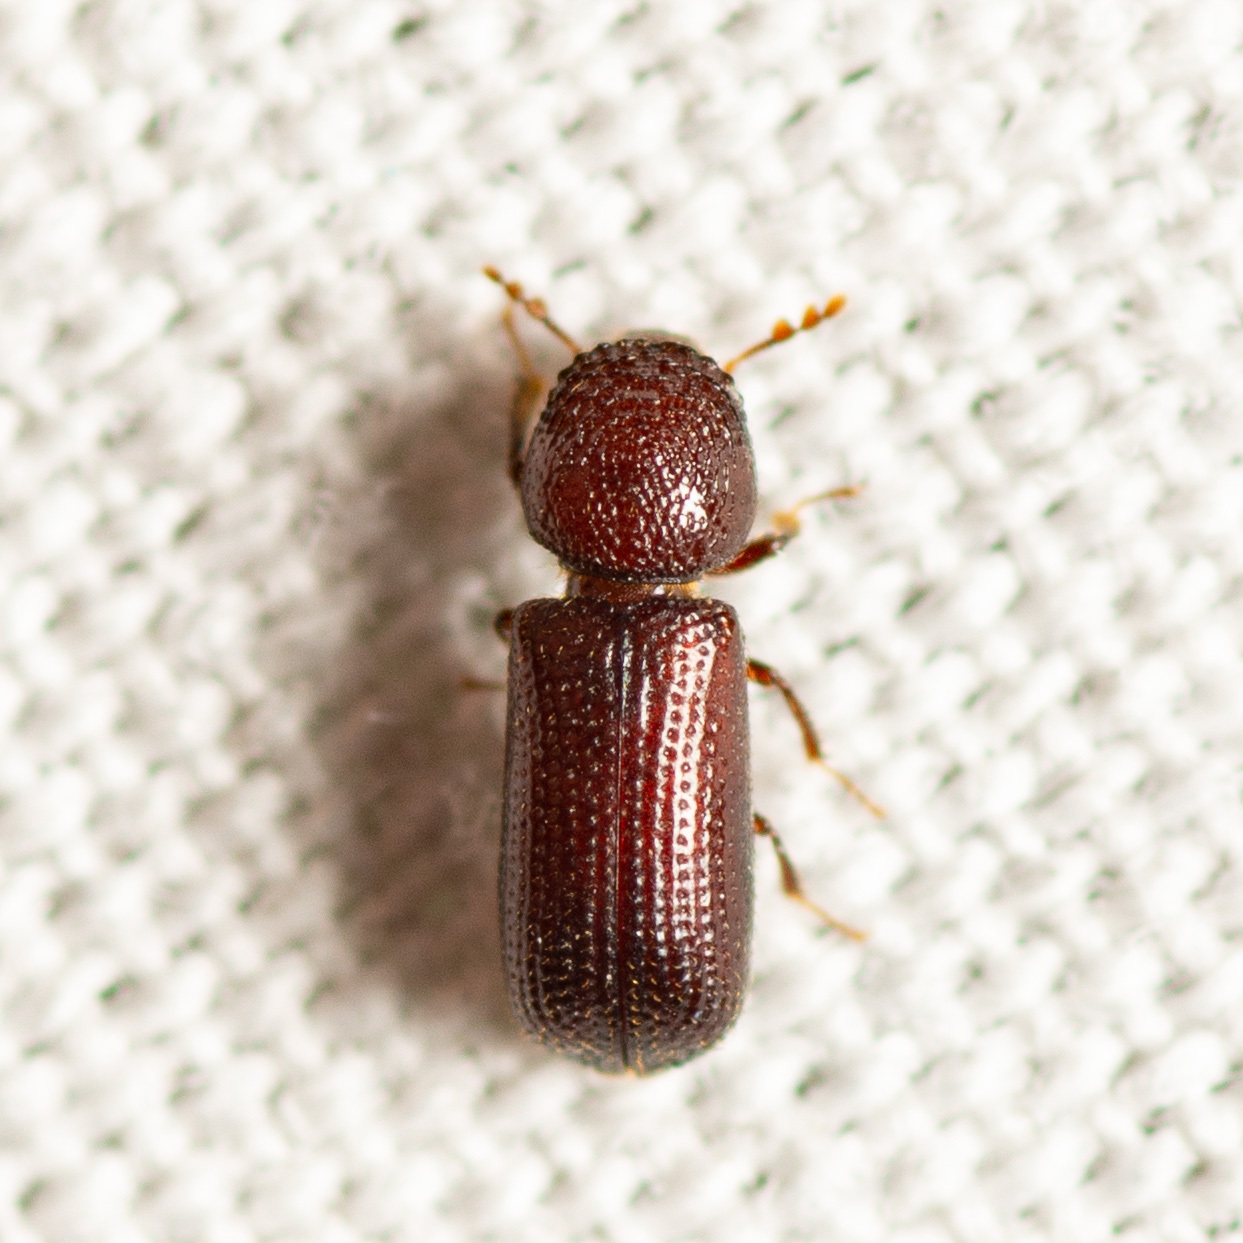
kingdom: Animalia
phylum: Arthropoda
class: Insecta
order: Coleoptera
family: Bostrichidae
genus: Rhyzopertha
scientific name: Rhyzopertha dominica
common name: Lesser grain borer
